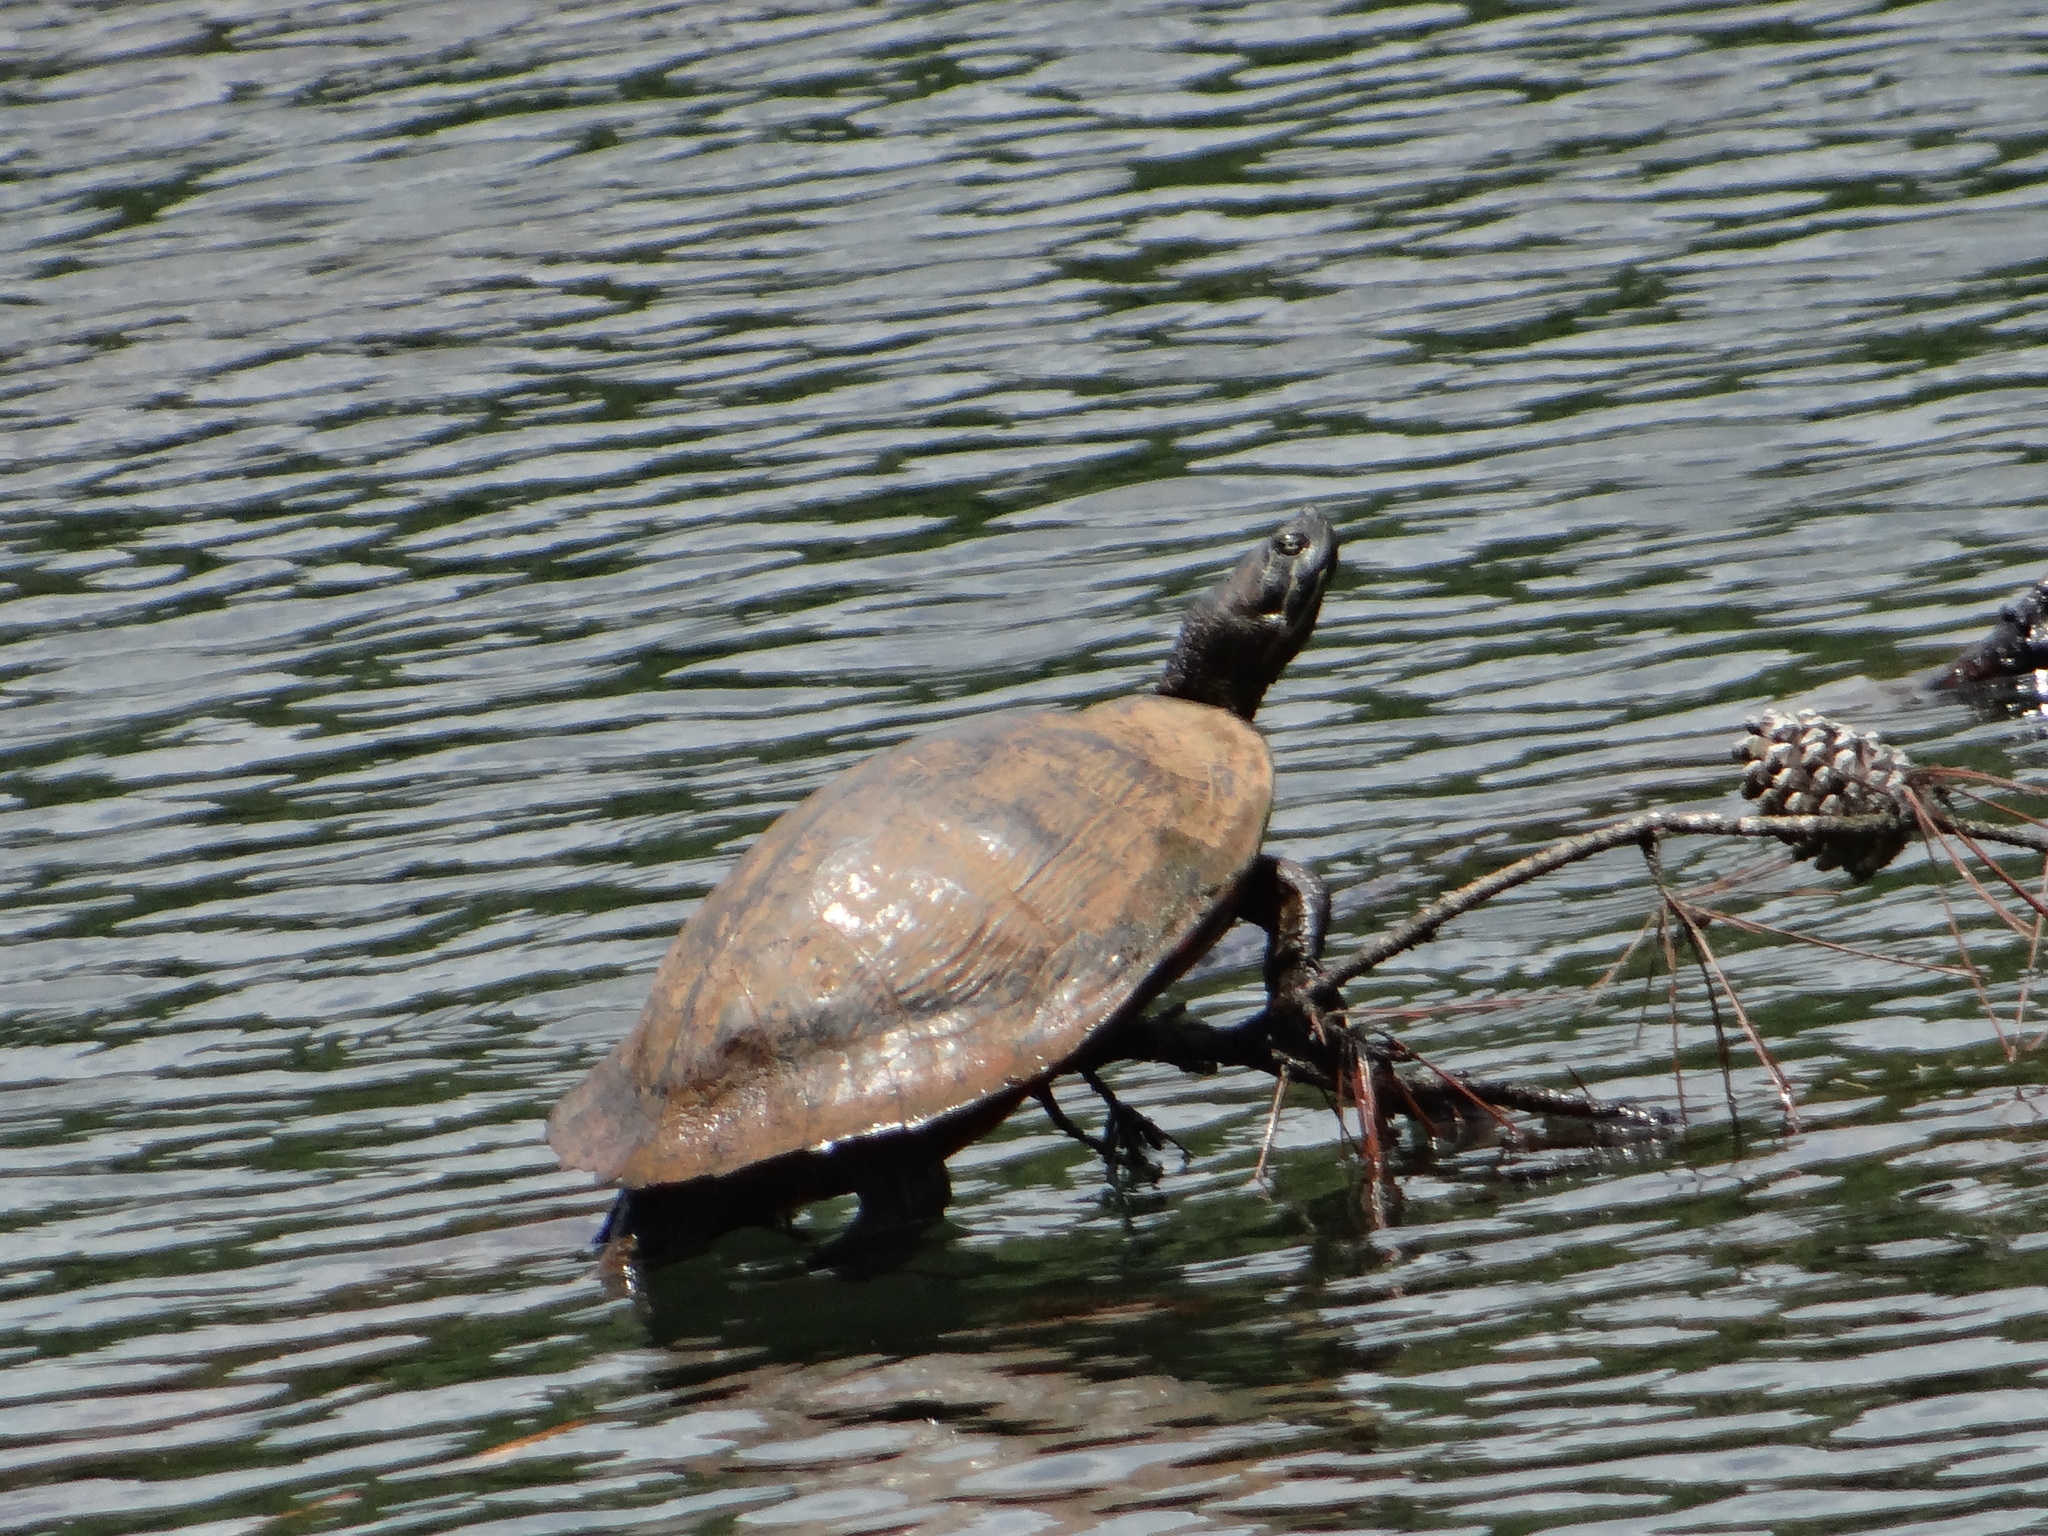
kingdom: Animalia
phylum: Chordata
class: Testudines
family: Emydidae
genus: Trachemys
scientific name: Trachemys scripta
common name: Slider
